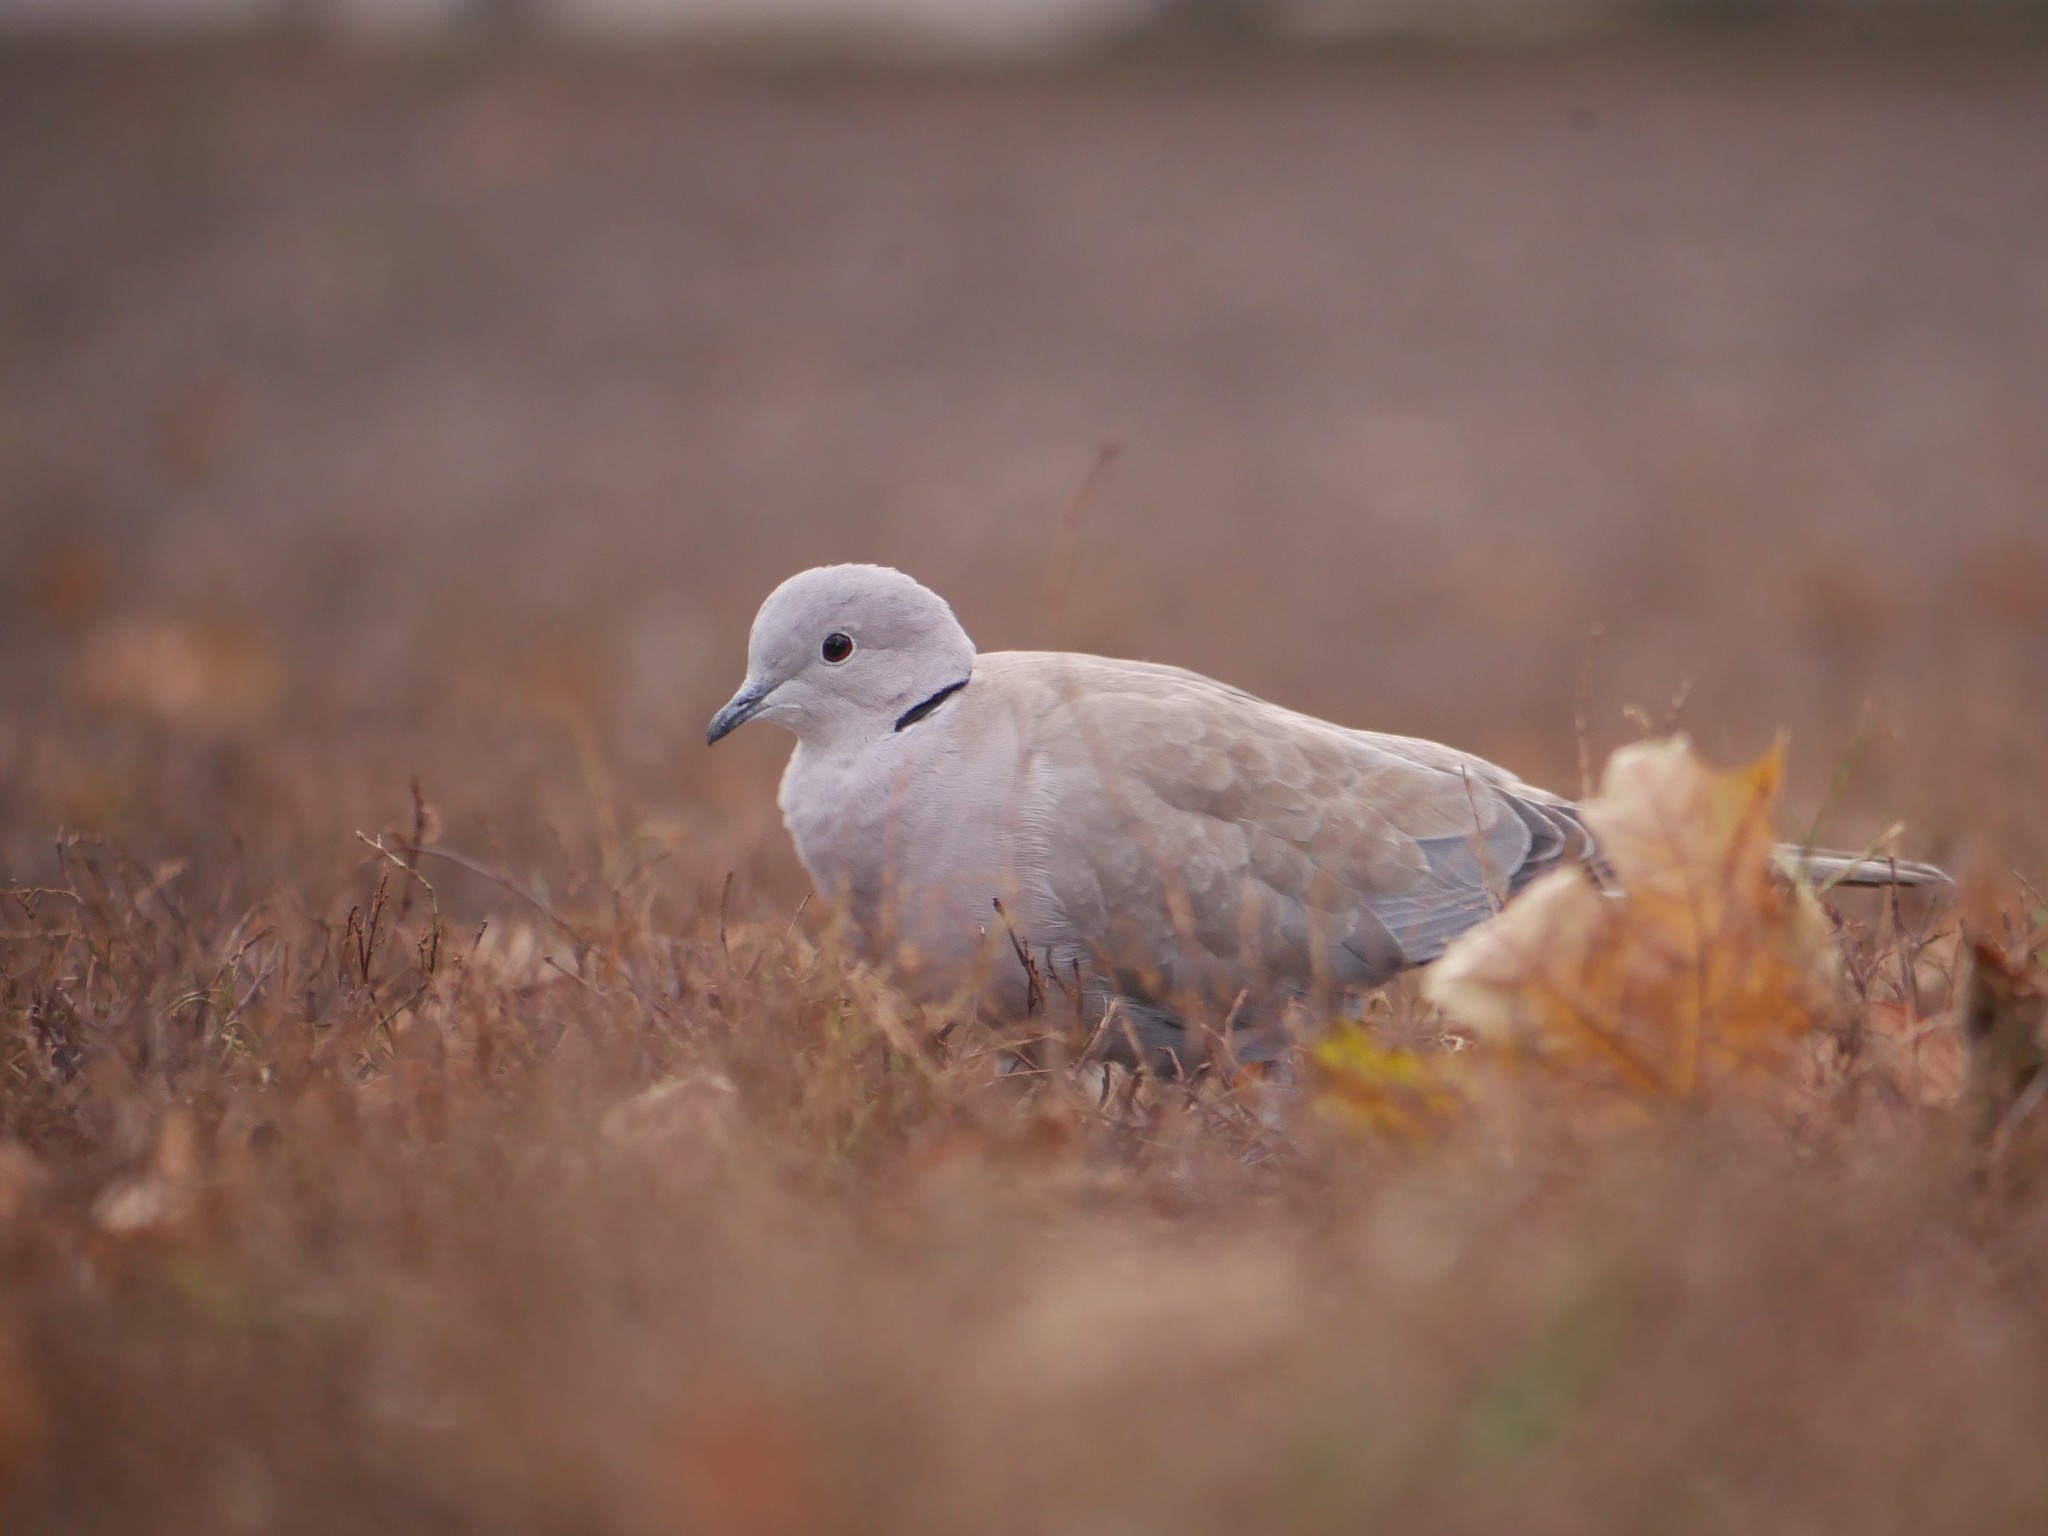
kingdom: Animalia
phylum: Chordata
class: Aves
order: Columbiformes
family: Columbidae
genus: Streptopelia
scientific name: Streptopelia decaocto
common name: Eurasian collared dove
